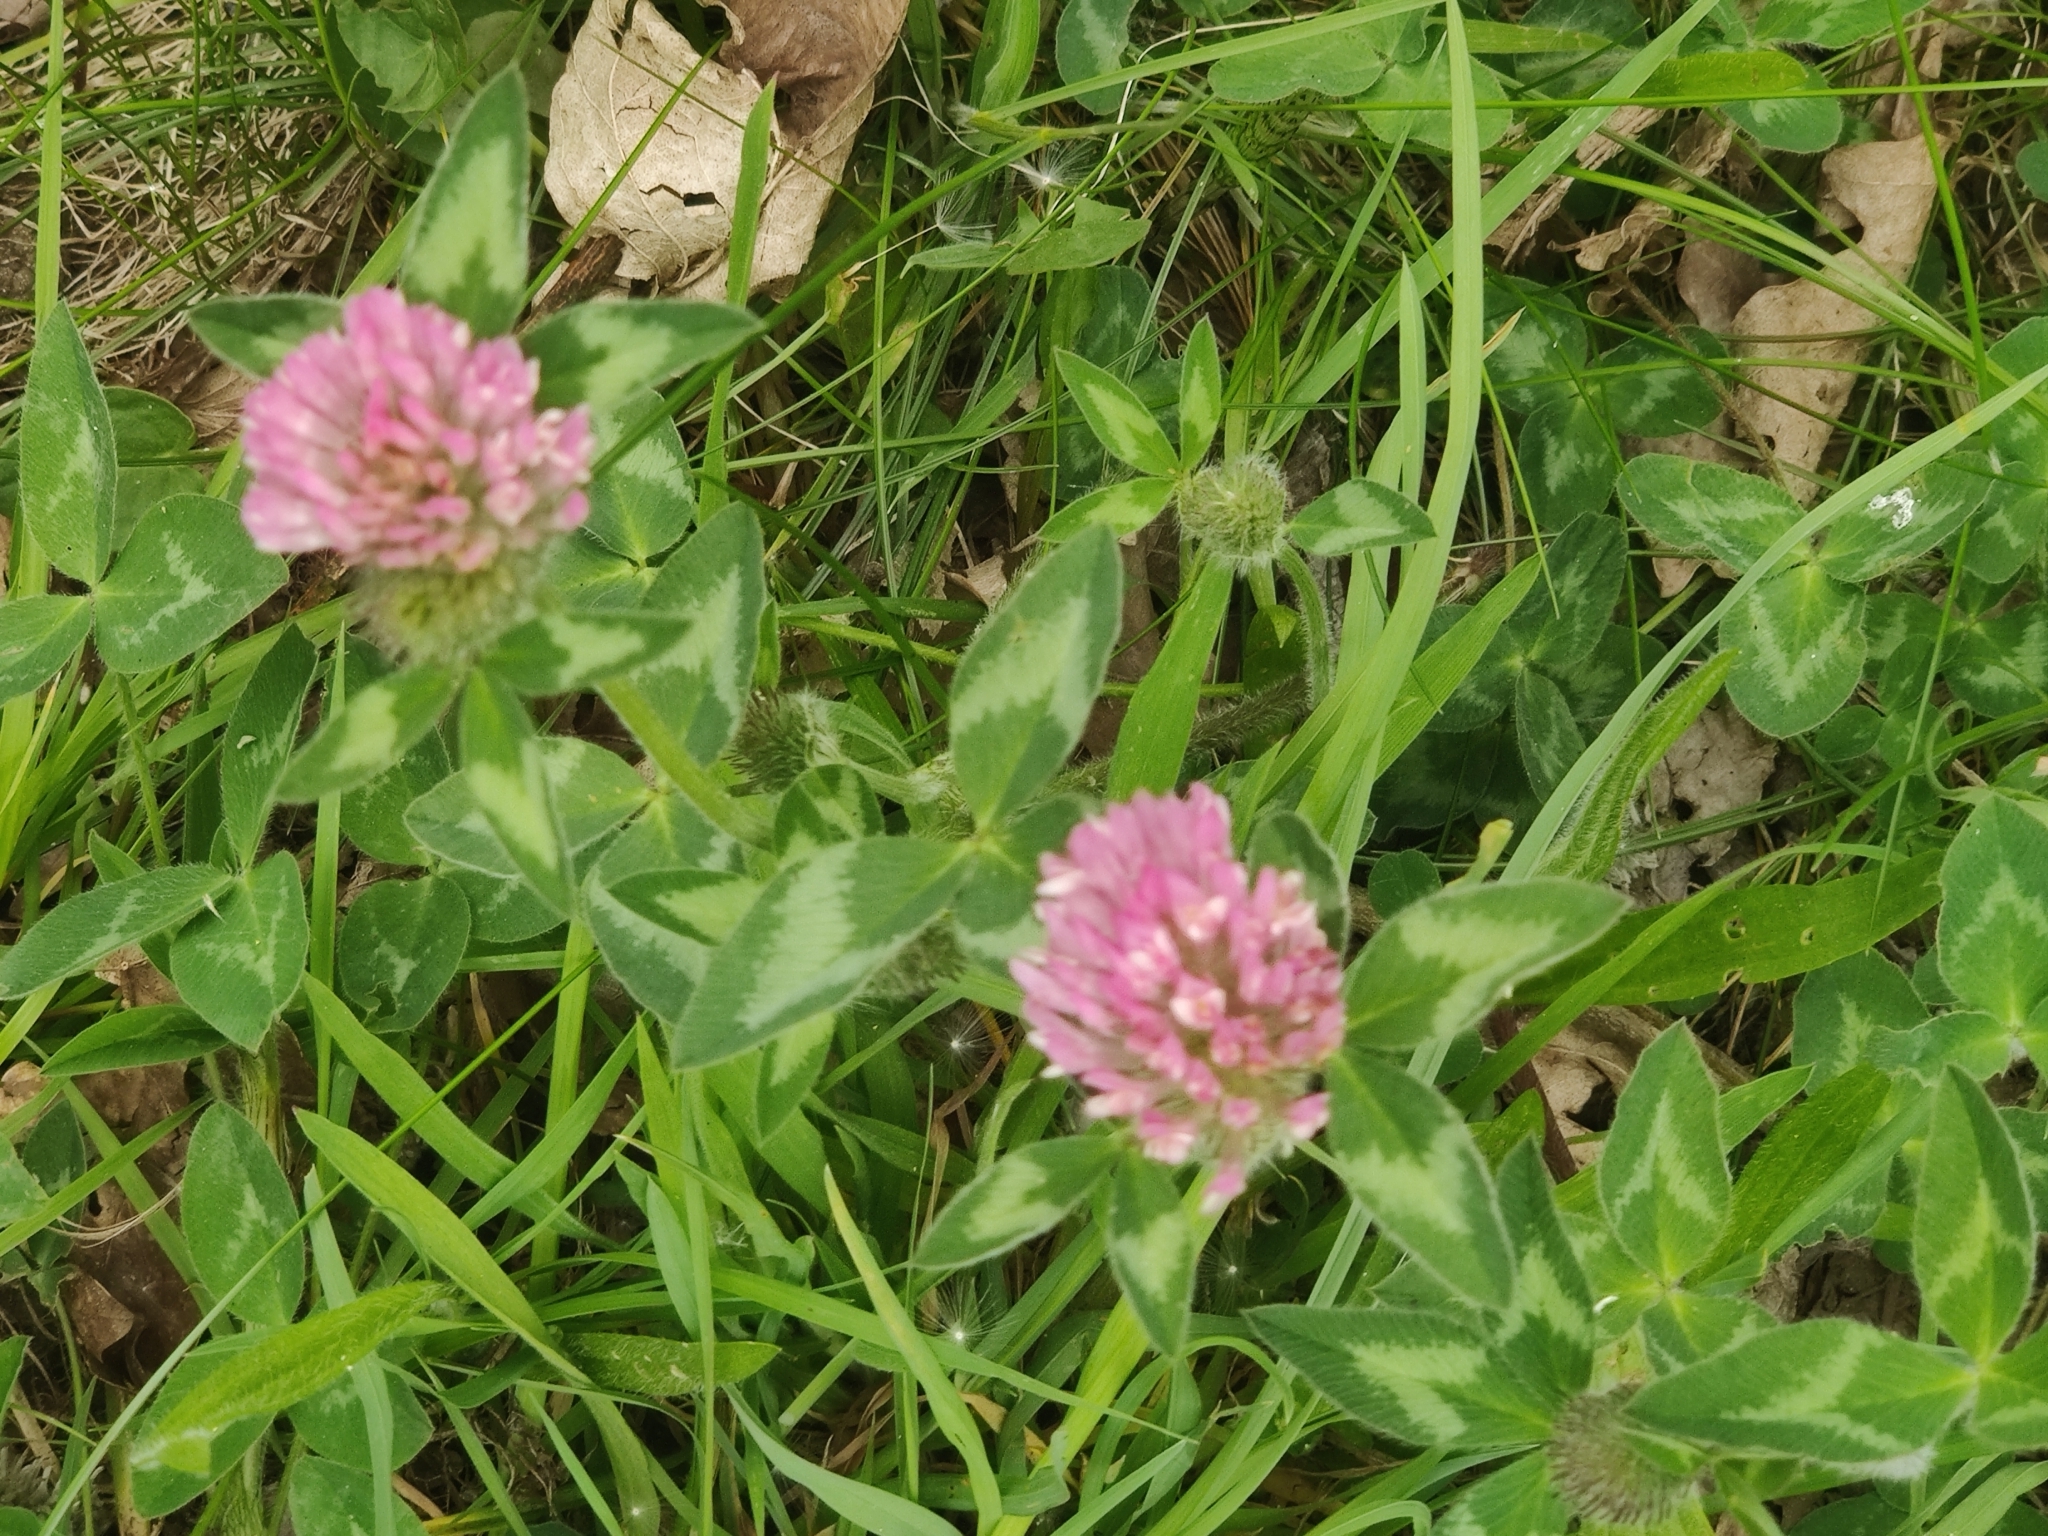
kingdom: Plantae
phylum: Tracheophyta
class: Magnoliopsida
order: Fabales
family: Fabaceae
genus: Trifolium
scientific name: Trifolium pratense
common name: Red clover
